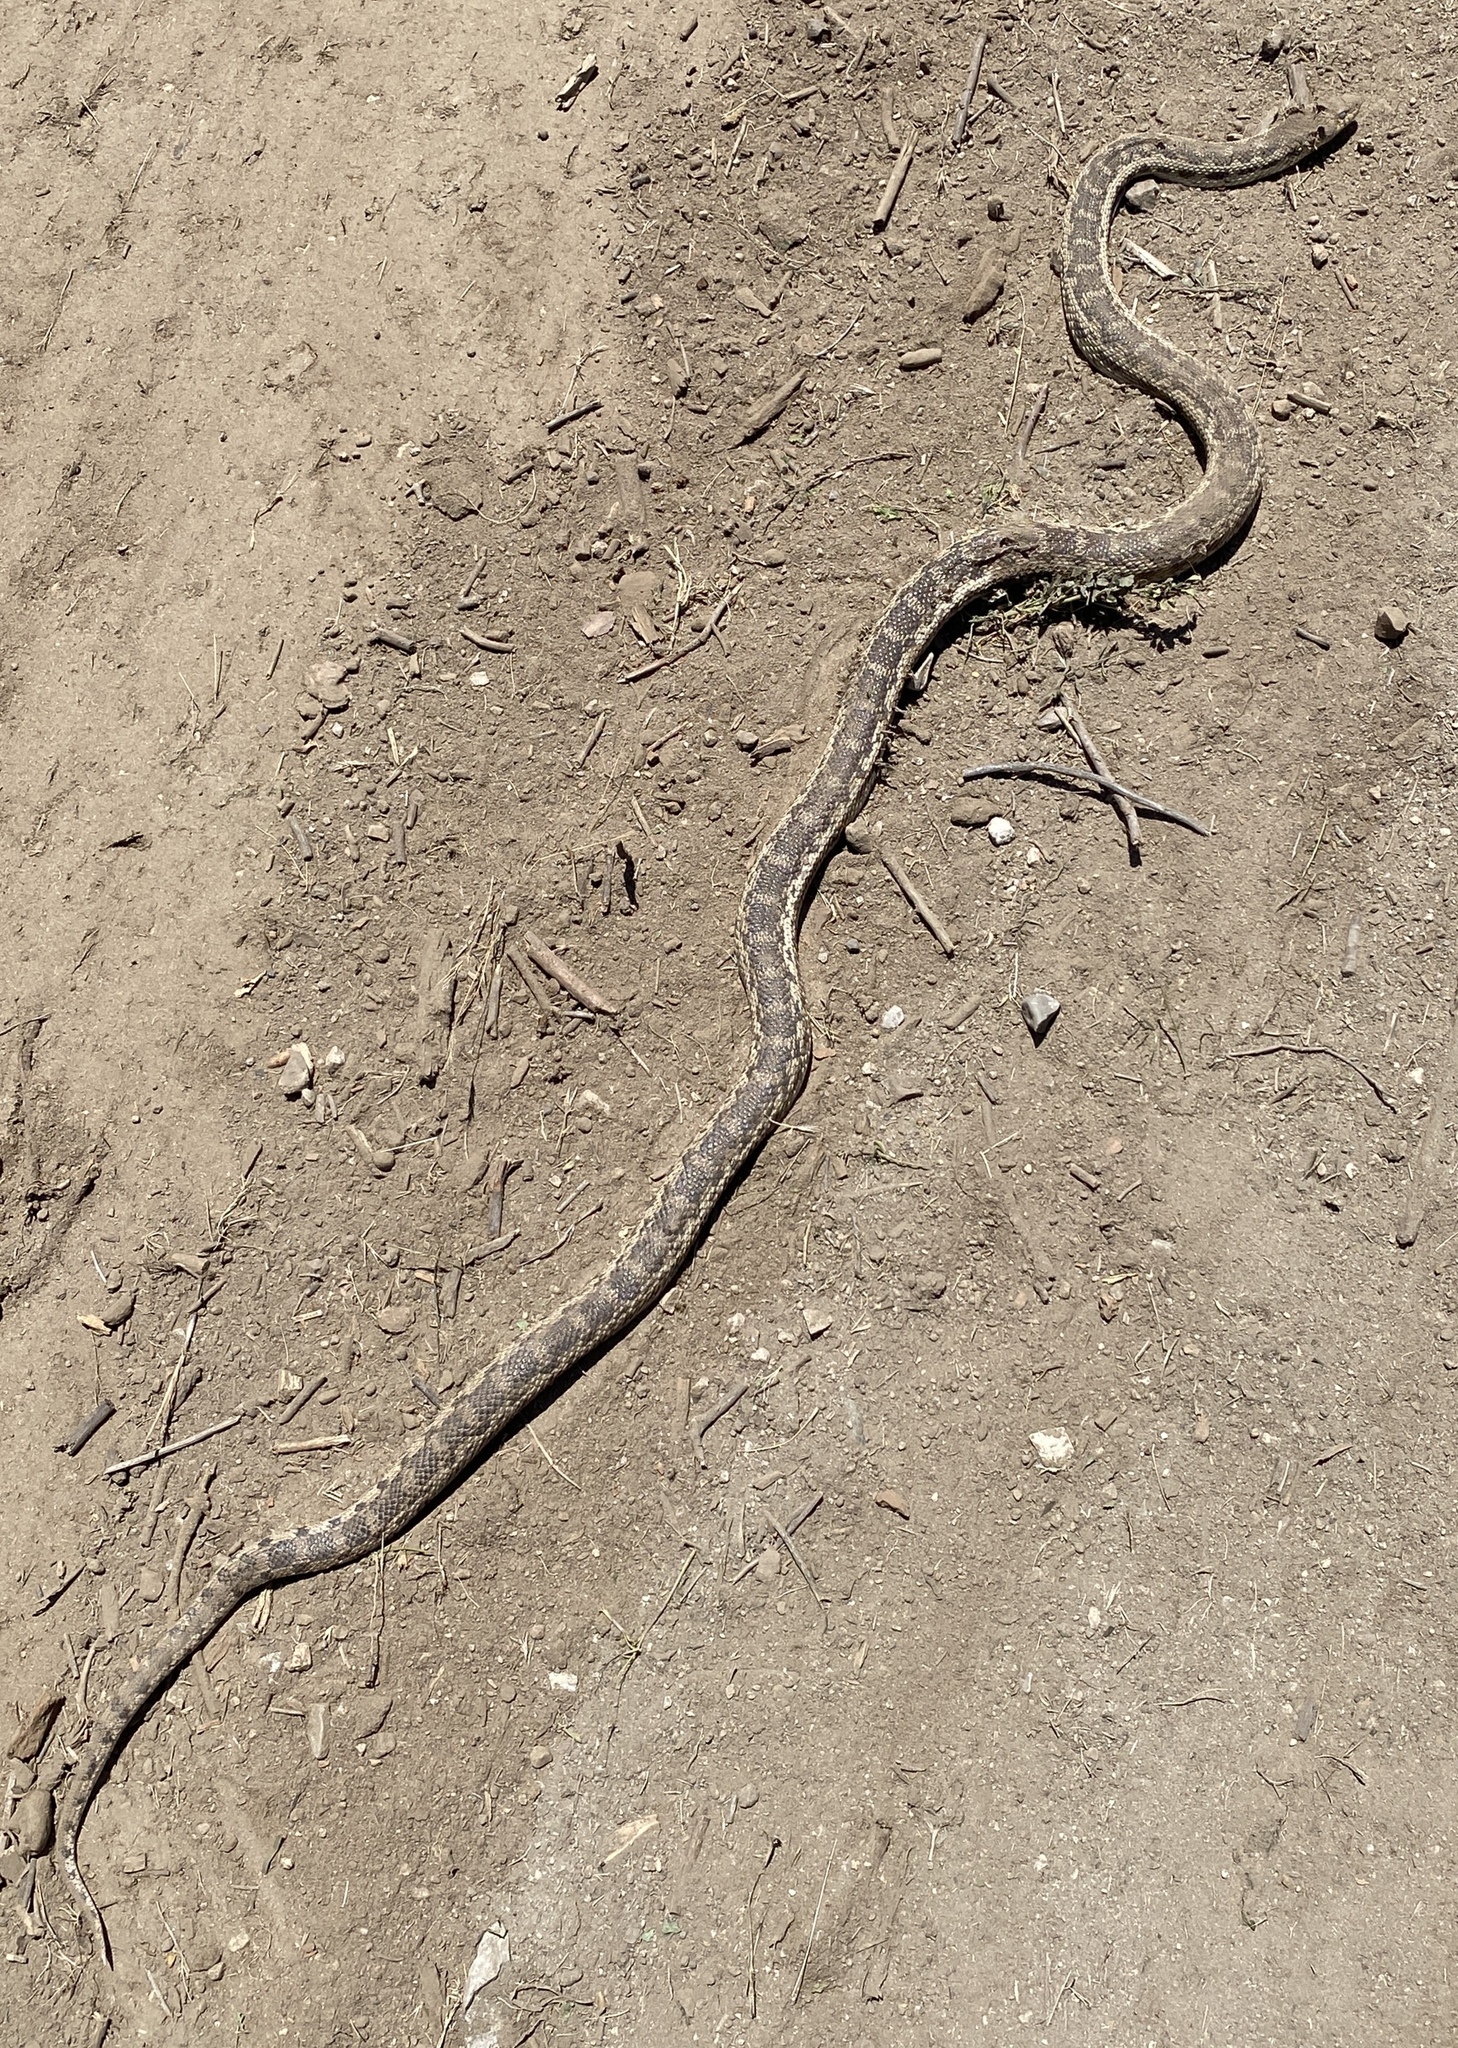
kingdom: Animalia
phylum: Chordata
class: Squamata
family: Colubridae
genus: Pituophis
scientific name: Pituophis catenifer
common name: Gopher snake
